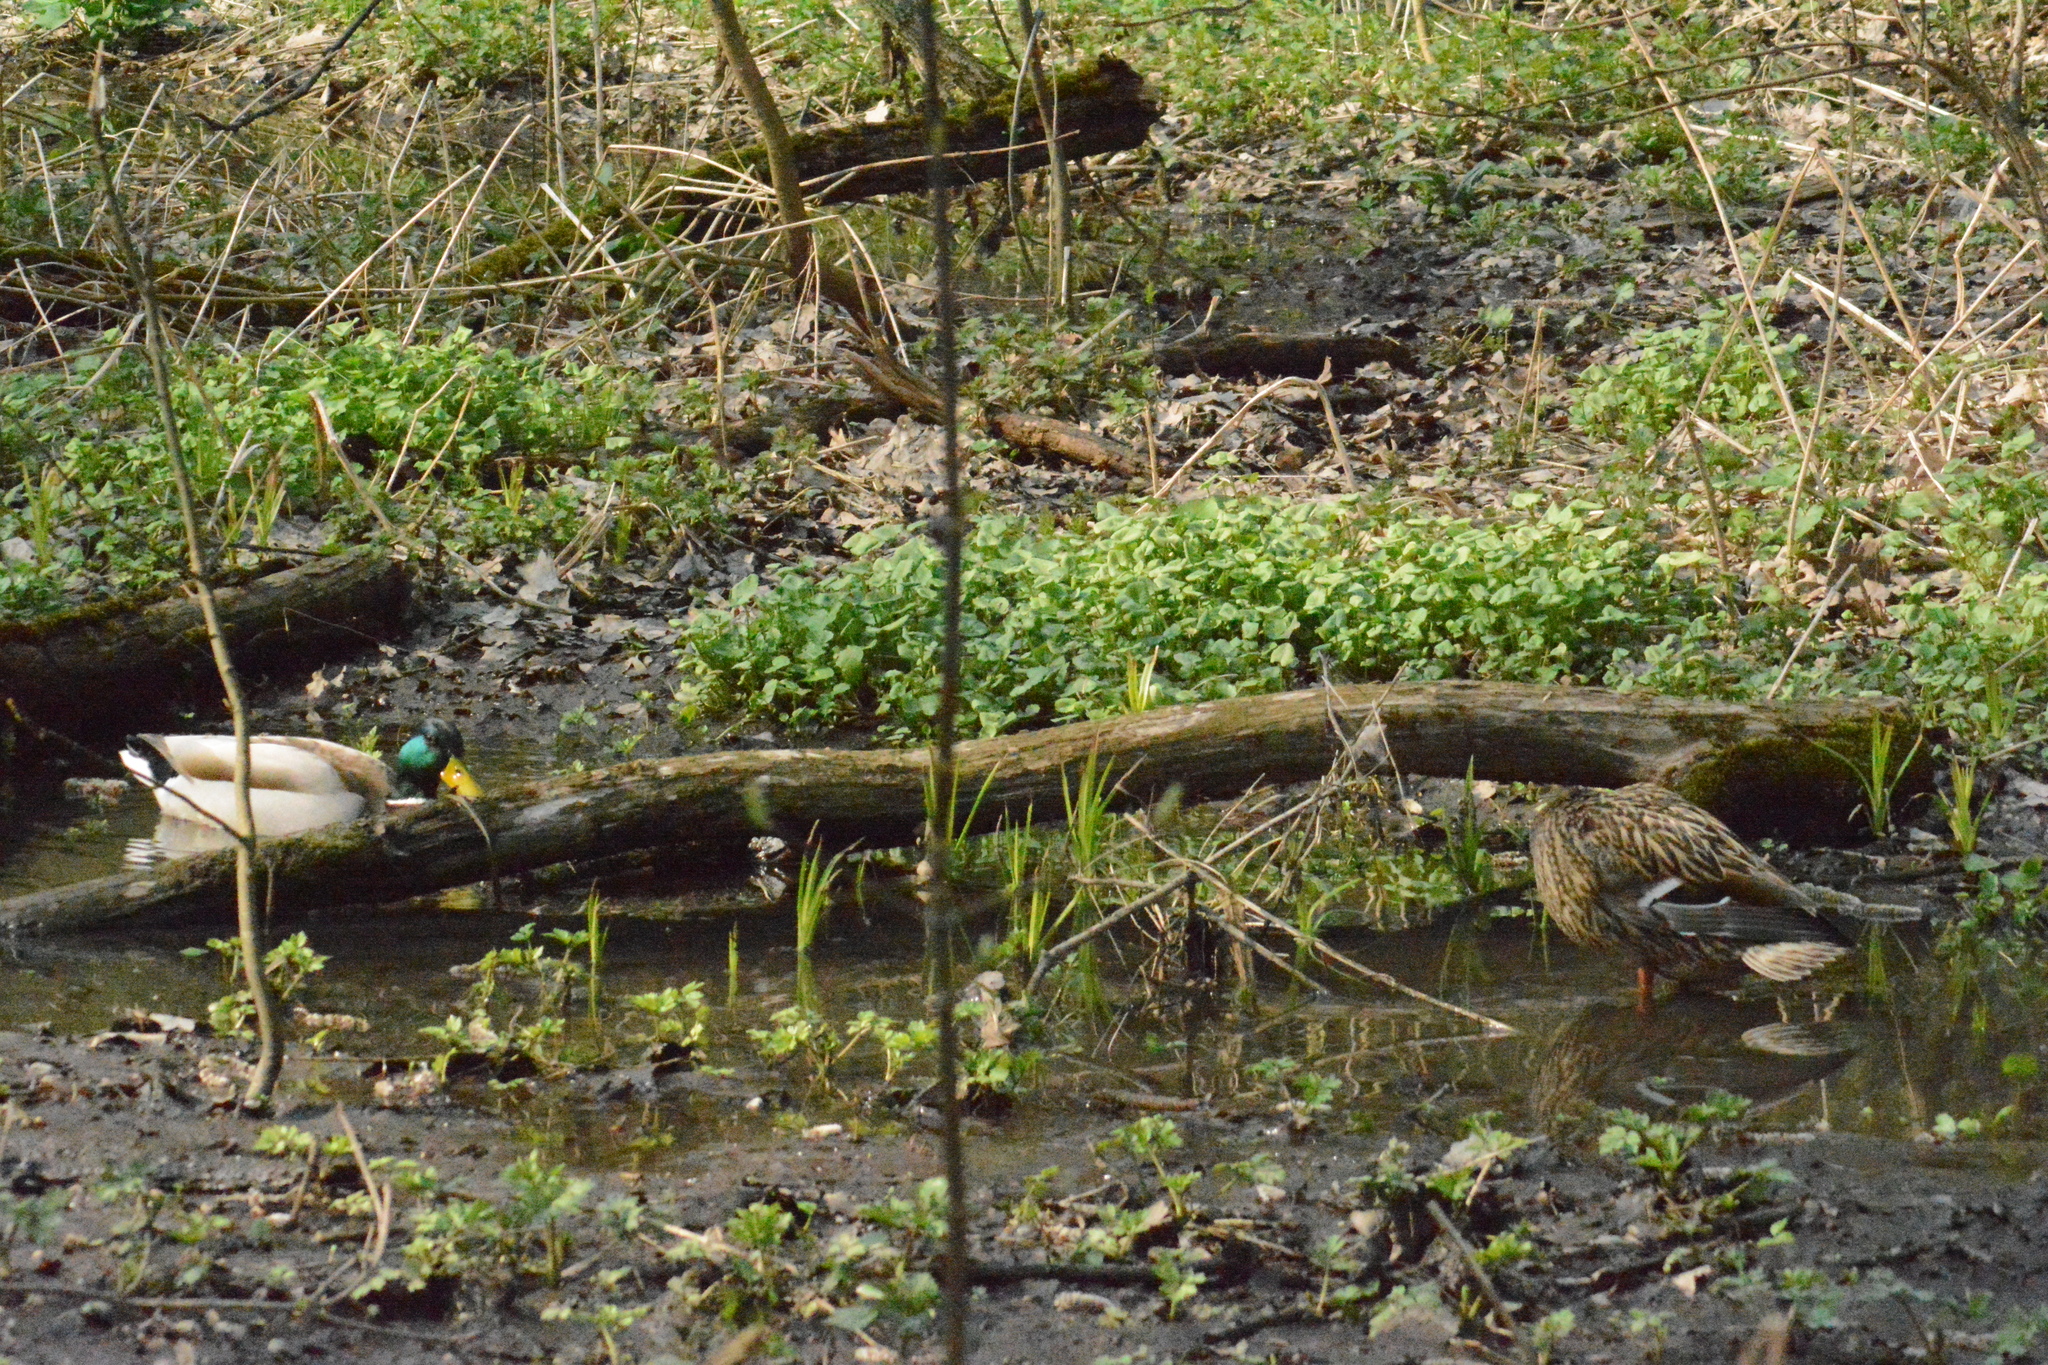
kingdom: Animalia
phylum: Chordata
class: Aves
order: Anseriformes
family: Anatidae
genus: Anas
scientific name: Anas platyrhynchos
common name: Mallard
